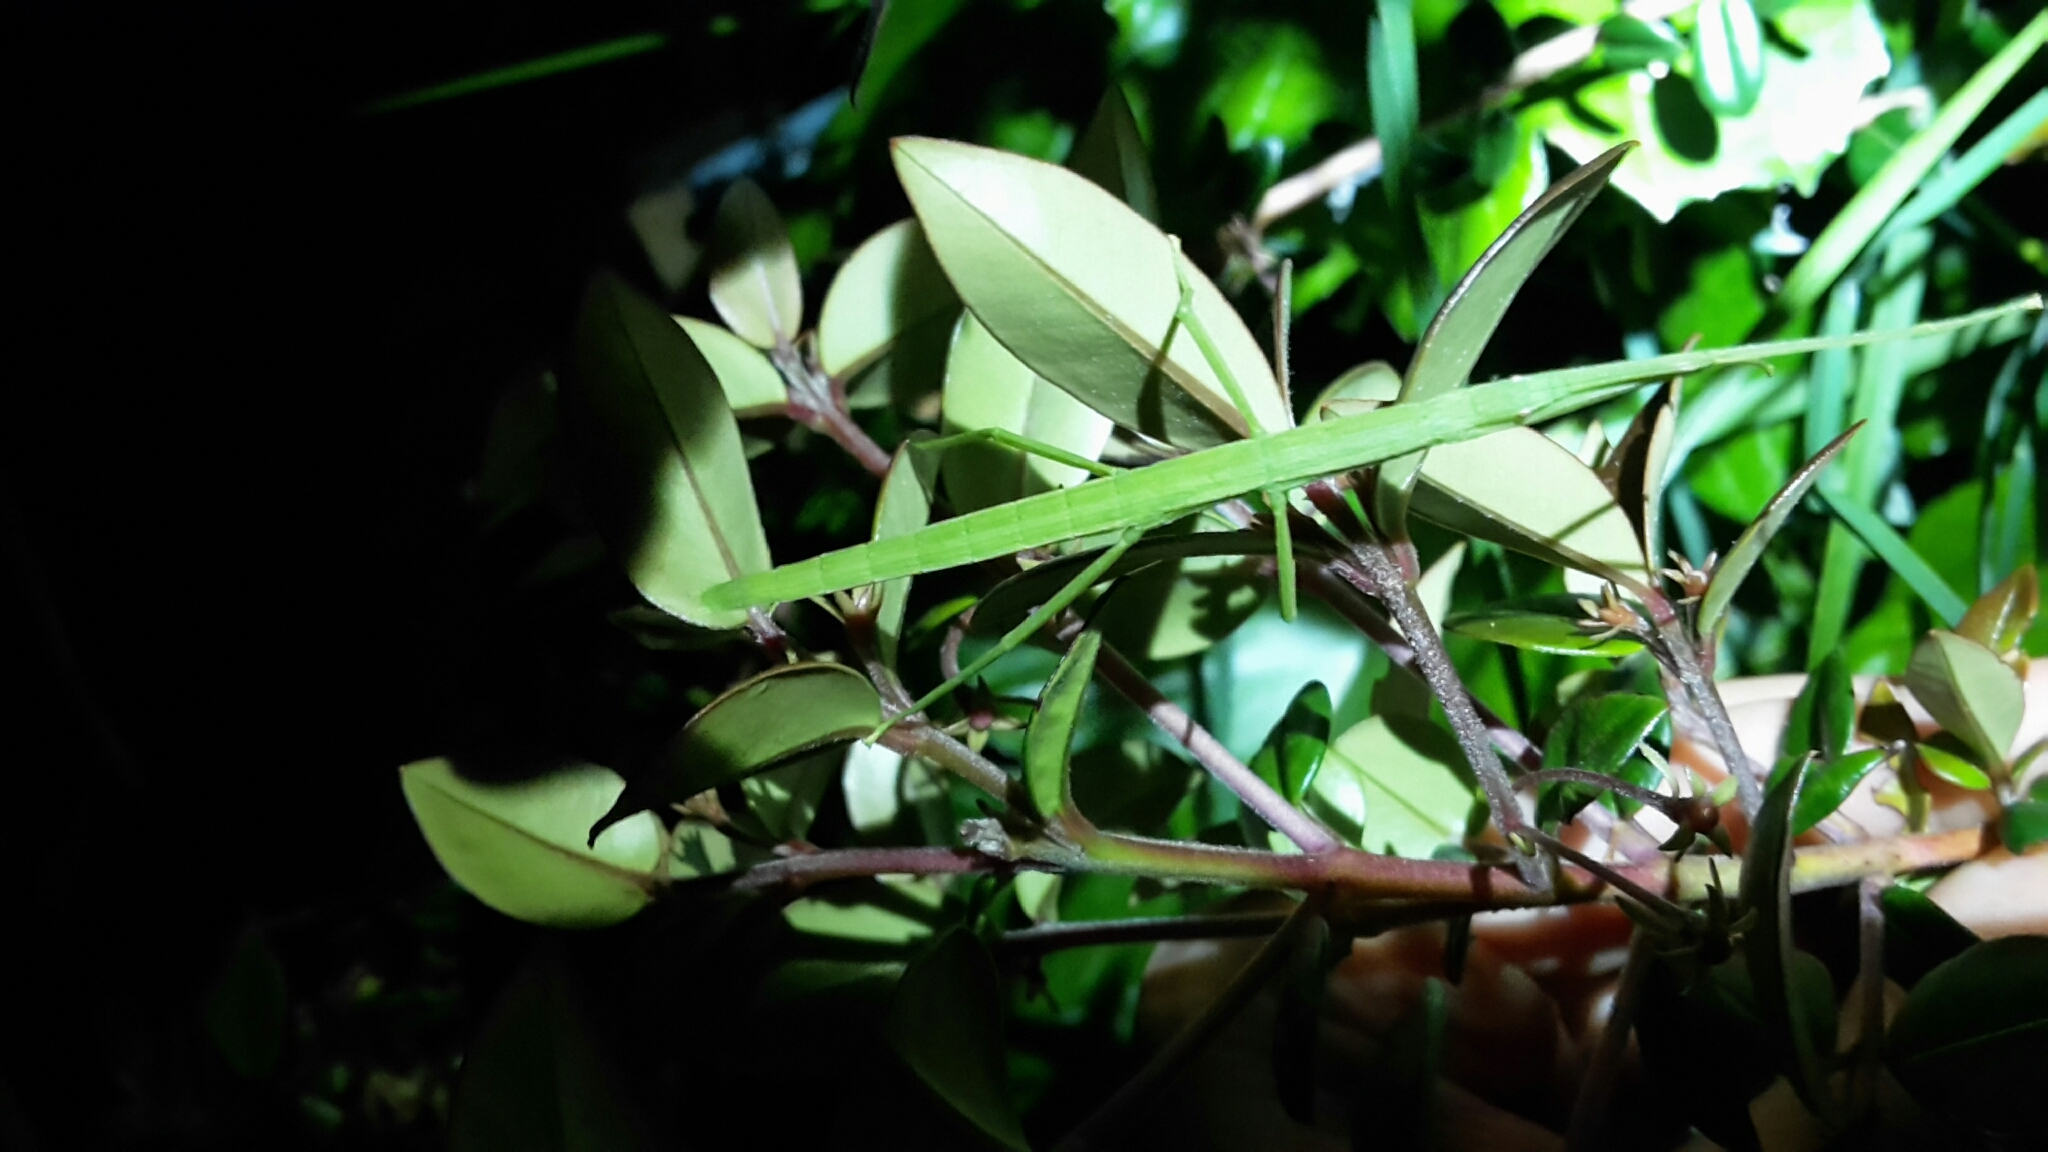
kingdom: Animalia
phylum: Arthropoda
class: Insecta
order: Phasmida
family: Phasmatidae
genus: Clitarchus
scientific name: Clitarchus hookeri
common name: Smooth stick insect
